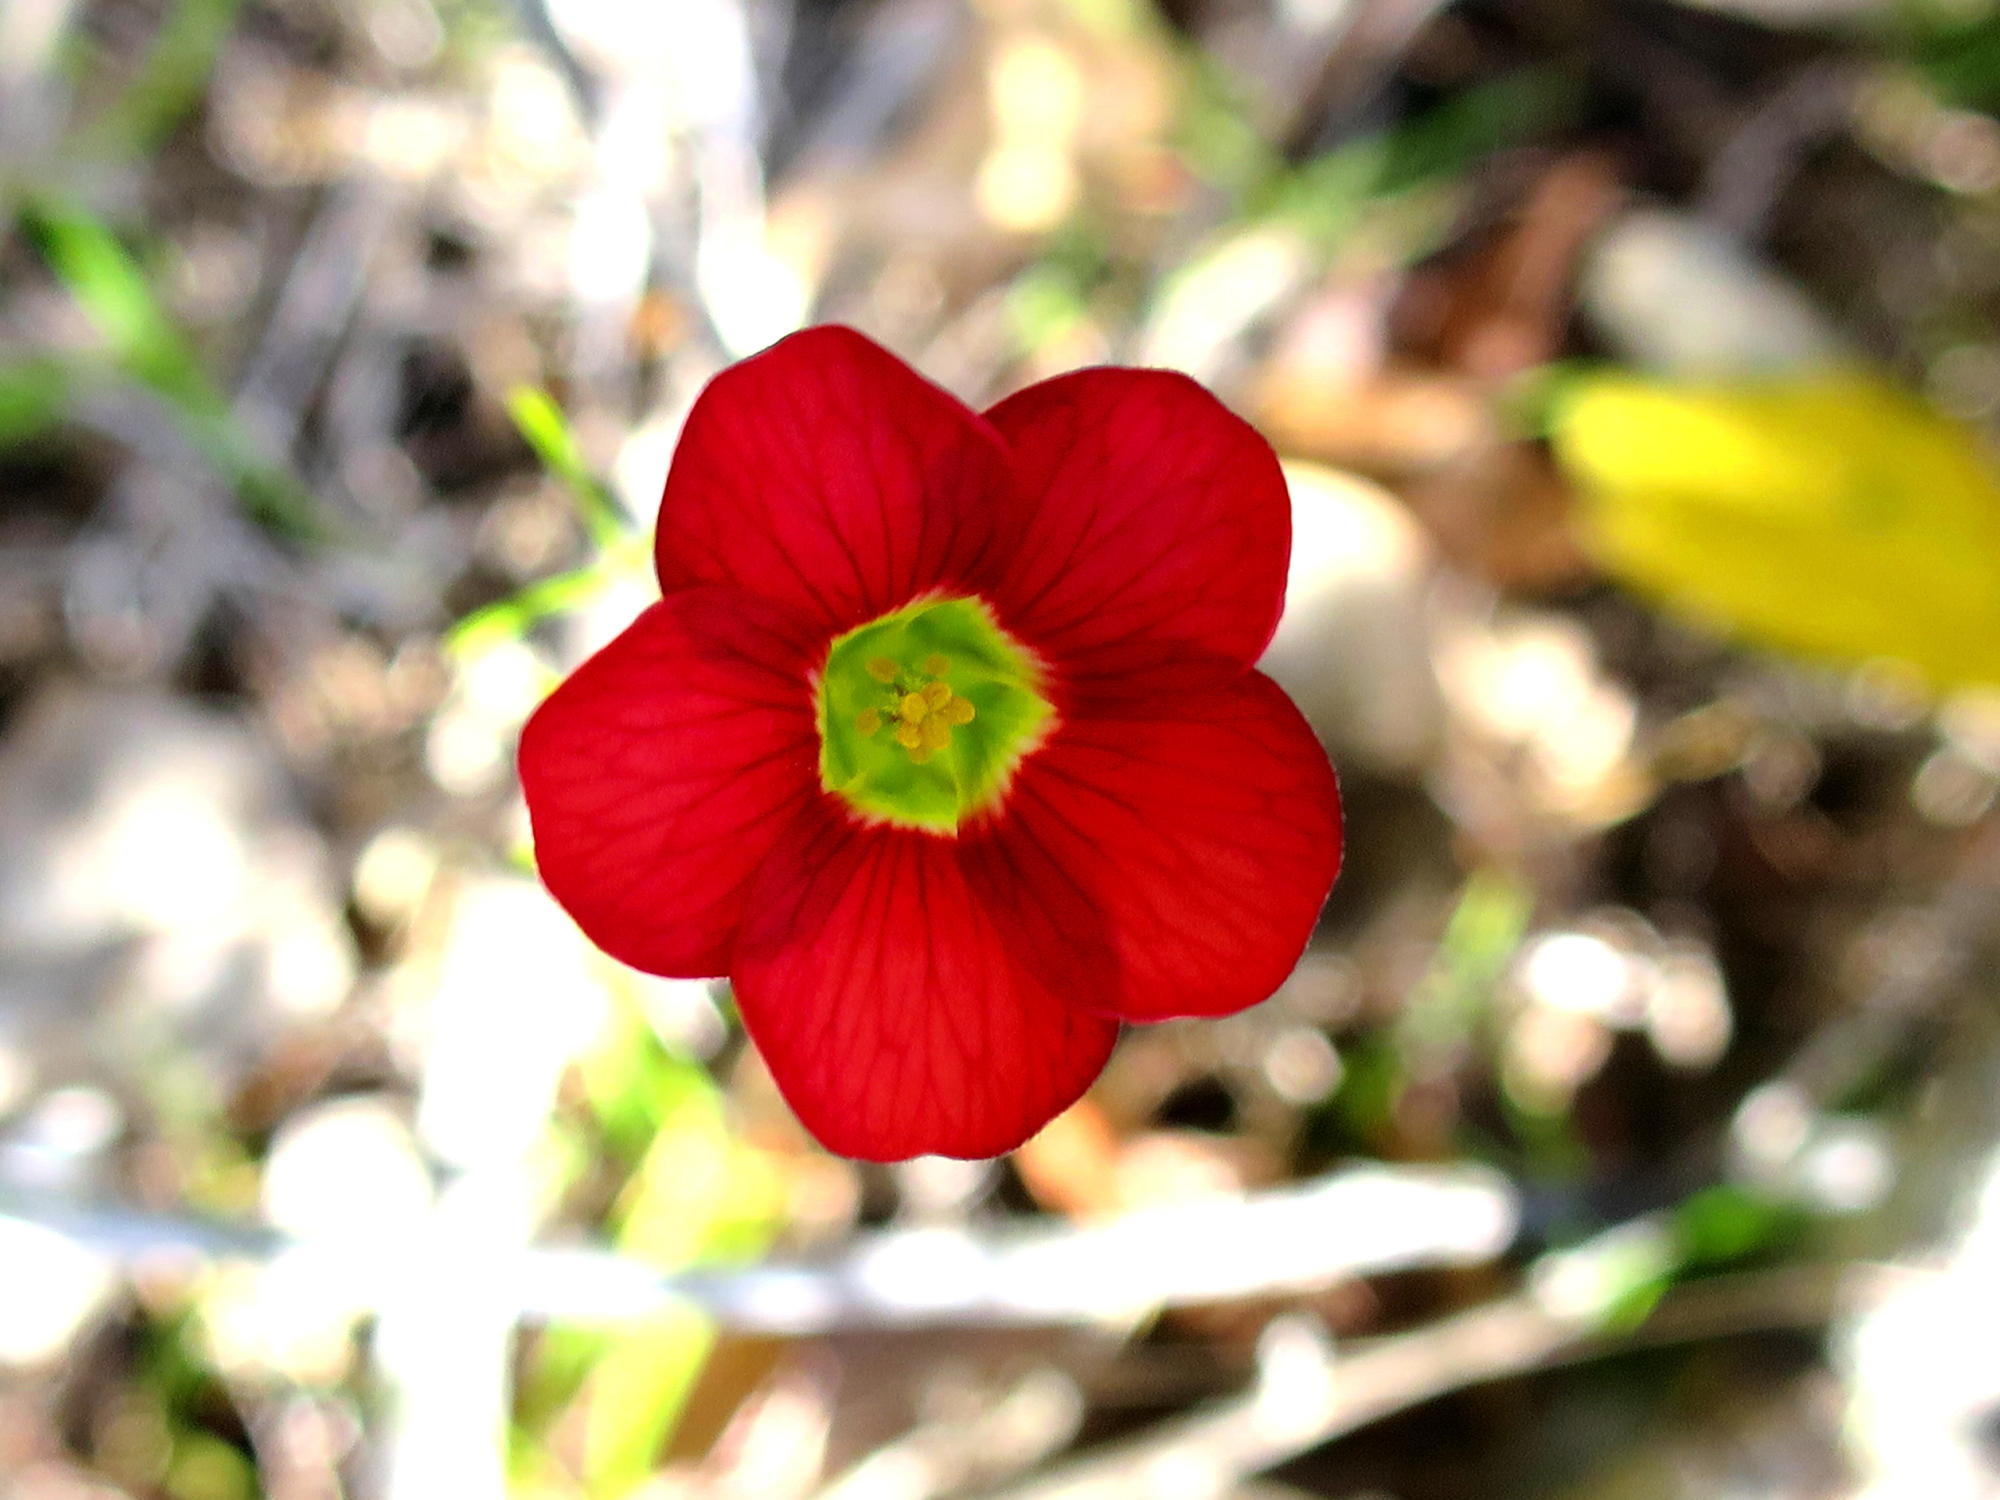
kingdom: Plantae
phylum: Tracheophyta
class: Magnoliopsida
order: Oxalidales
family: Oxalidaceae
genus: Oxalis
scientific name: Oxalis pendulifolia
